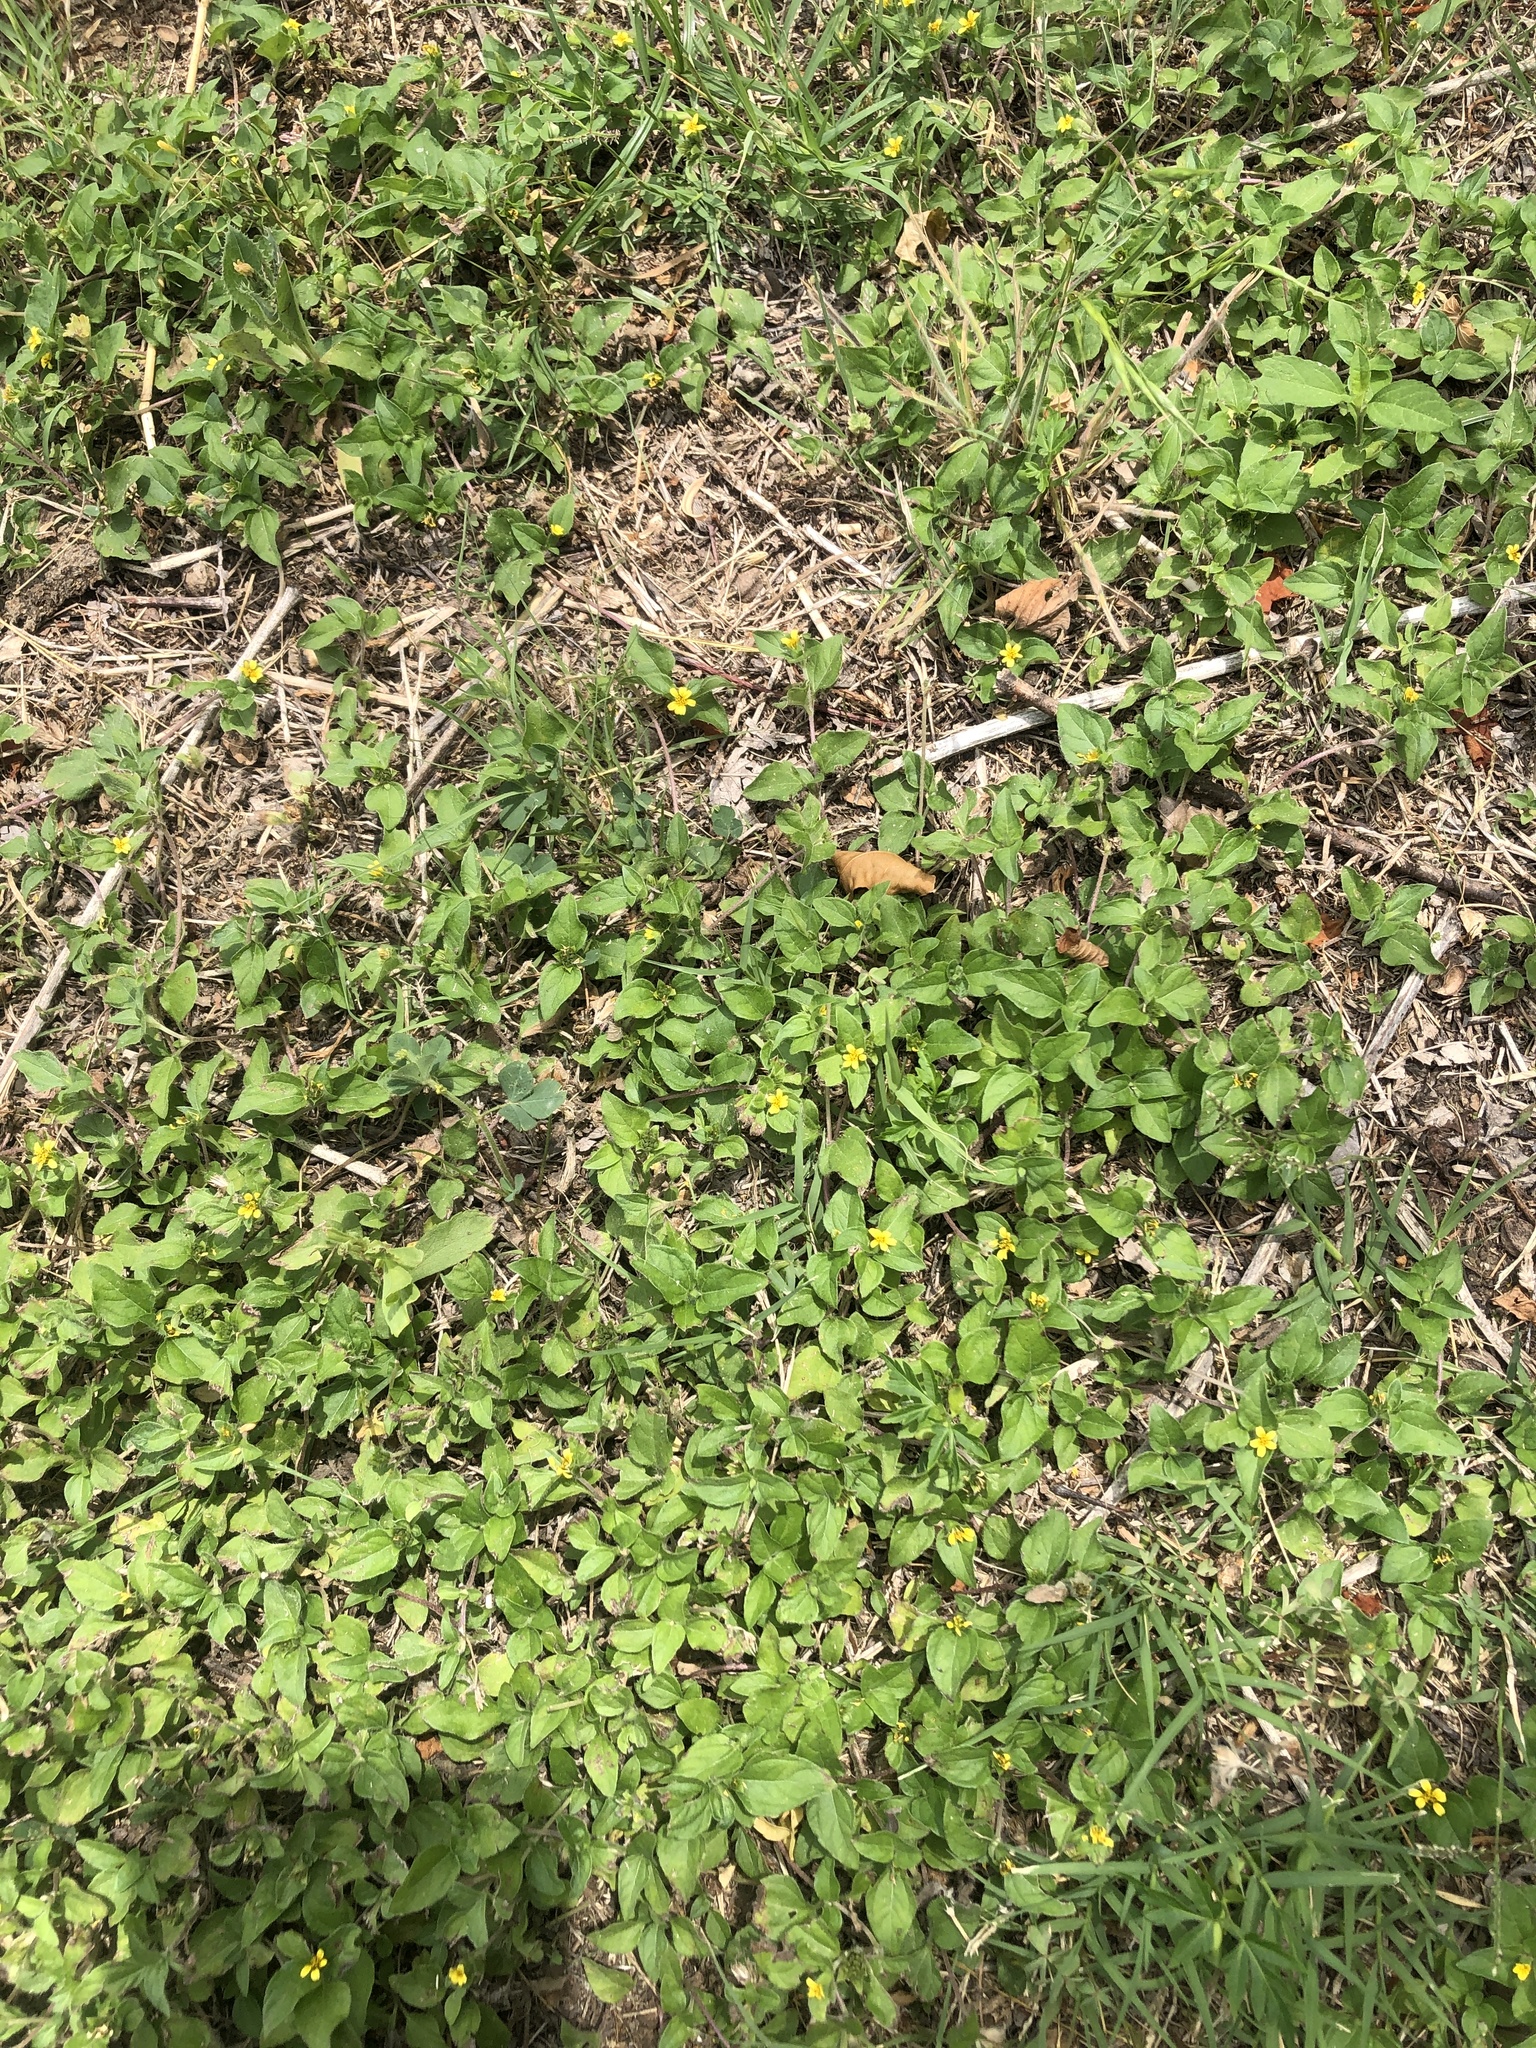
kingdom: Plantae
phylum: Tracheophyta
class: Magnoliopsida
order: Asterales
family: Asteraceae
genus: Calyptocarpus
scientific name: Calyptocarpus vialis
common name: Straggler daisy
